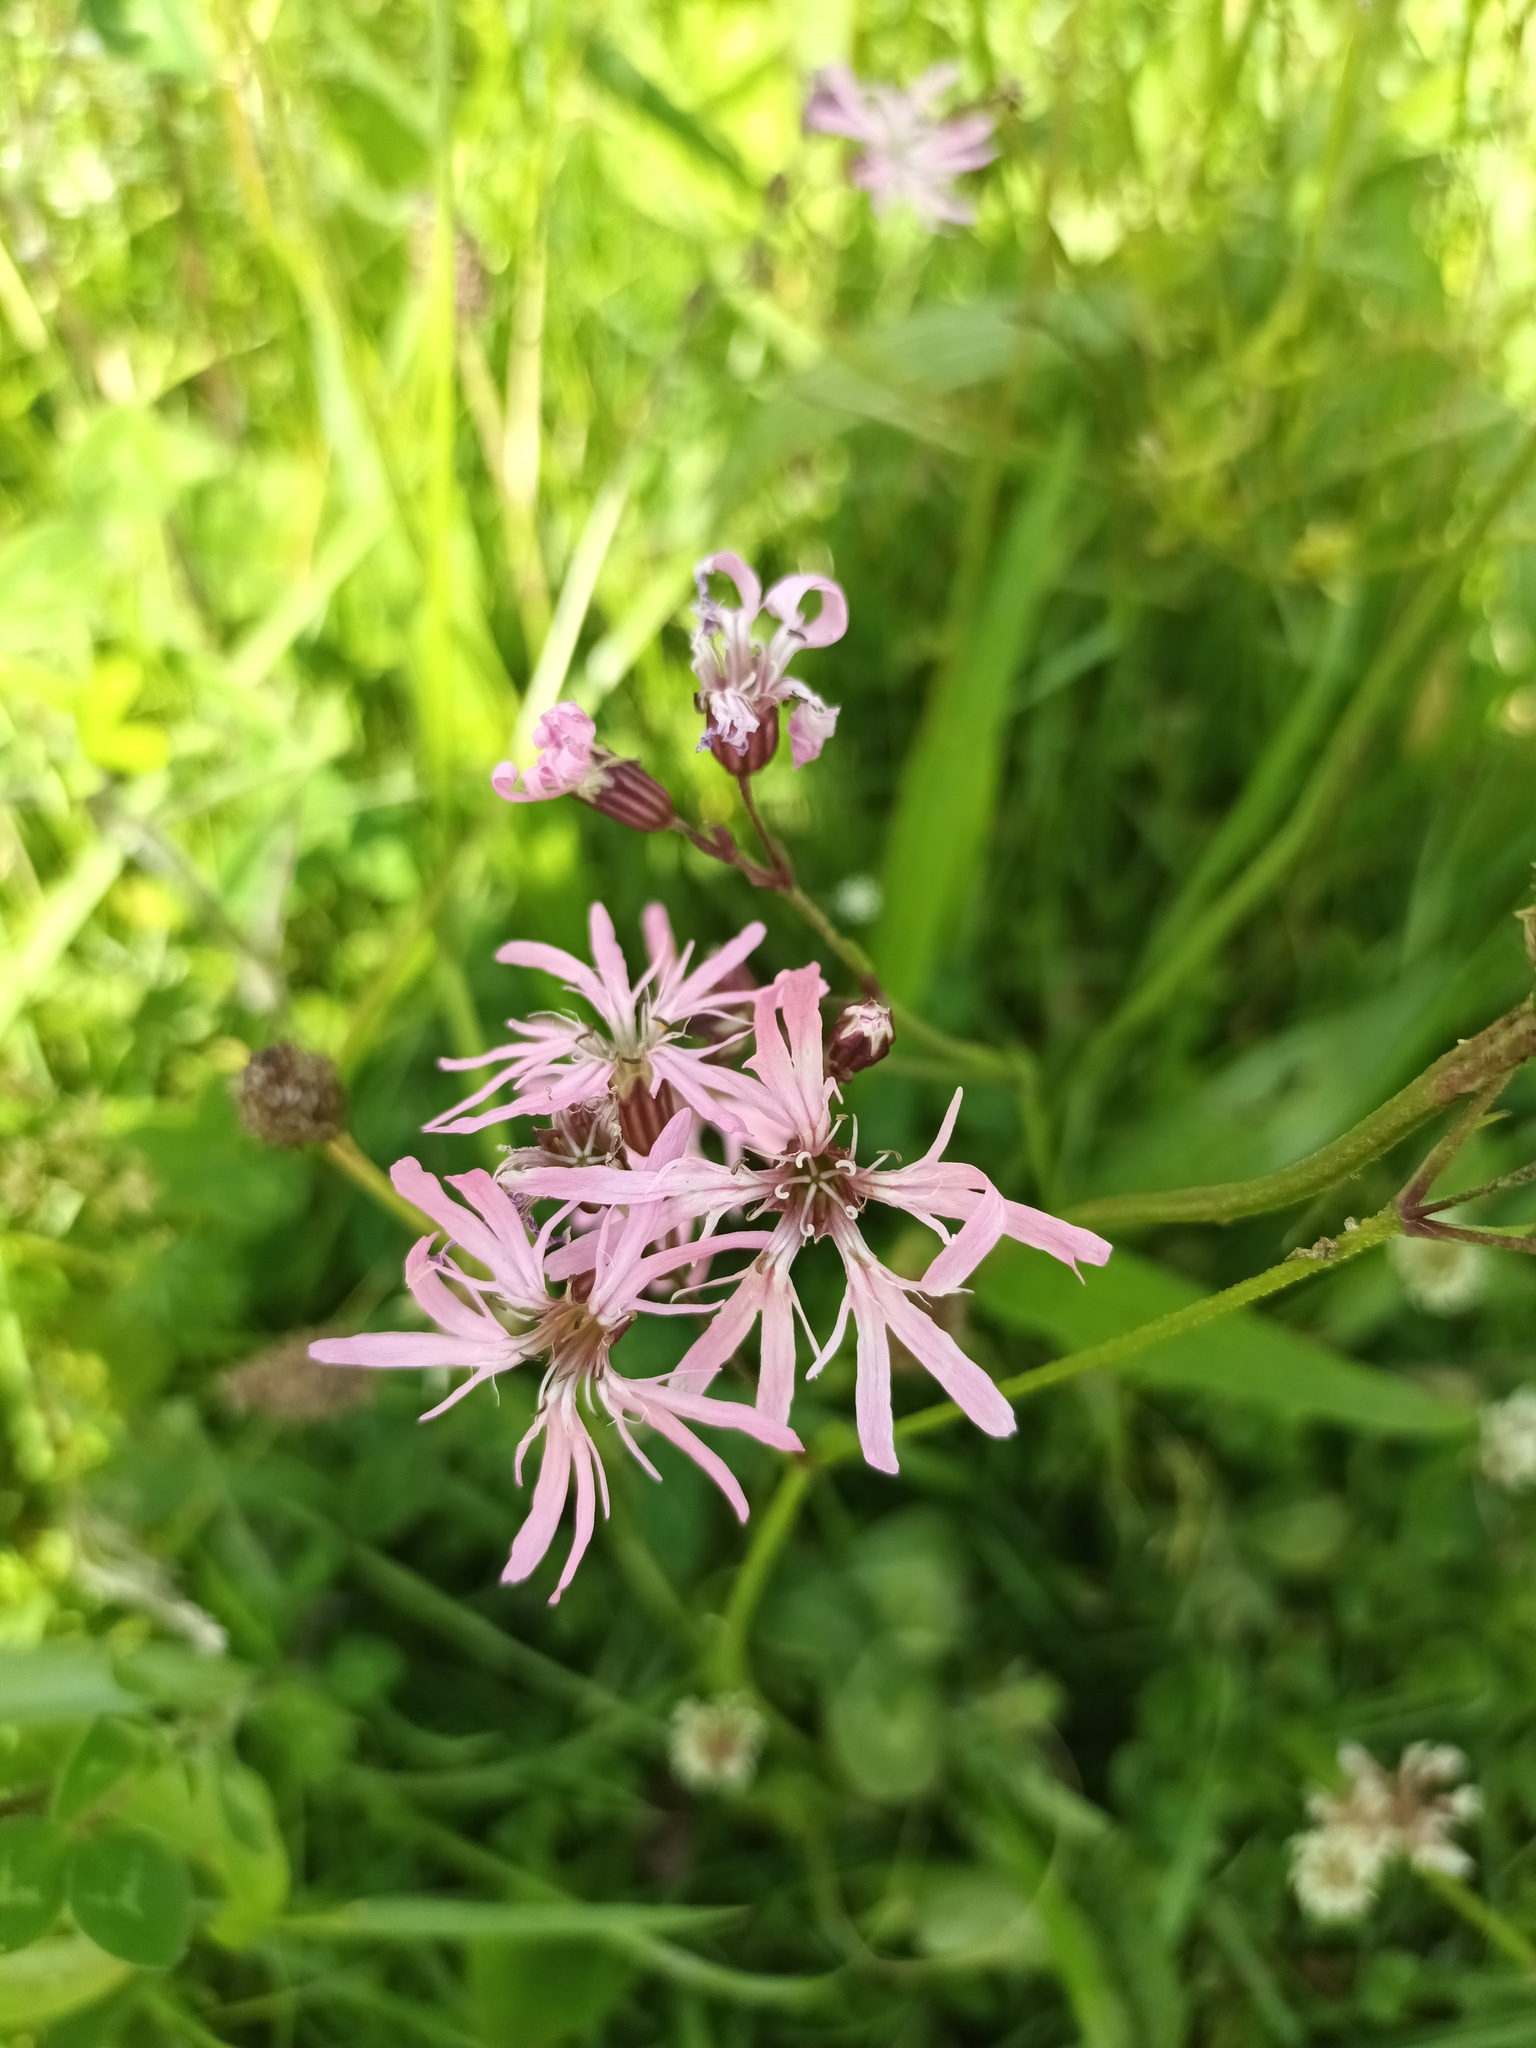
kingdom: Plantae
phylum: Tracheophyta
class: Magnoliopsida
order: Caryophyllales
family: Caryophyllaceae
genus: Silene
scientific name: Silene flos-cuculi
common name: Ragged-robin
